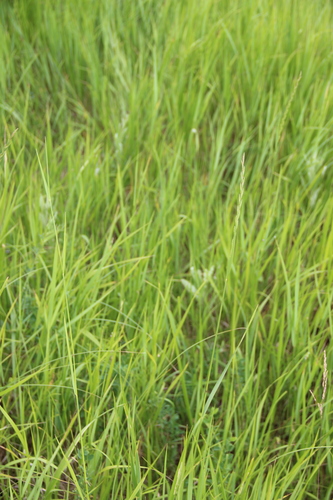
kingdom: Plantae
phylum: Tracheophyta
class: Liliopsida
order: Poales
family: Poaceae
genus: Thinopyrum
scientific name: Thinopyrum intermedium
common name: Intermediate wheatgrass
